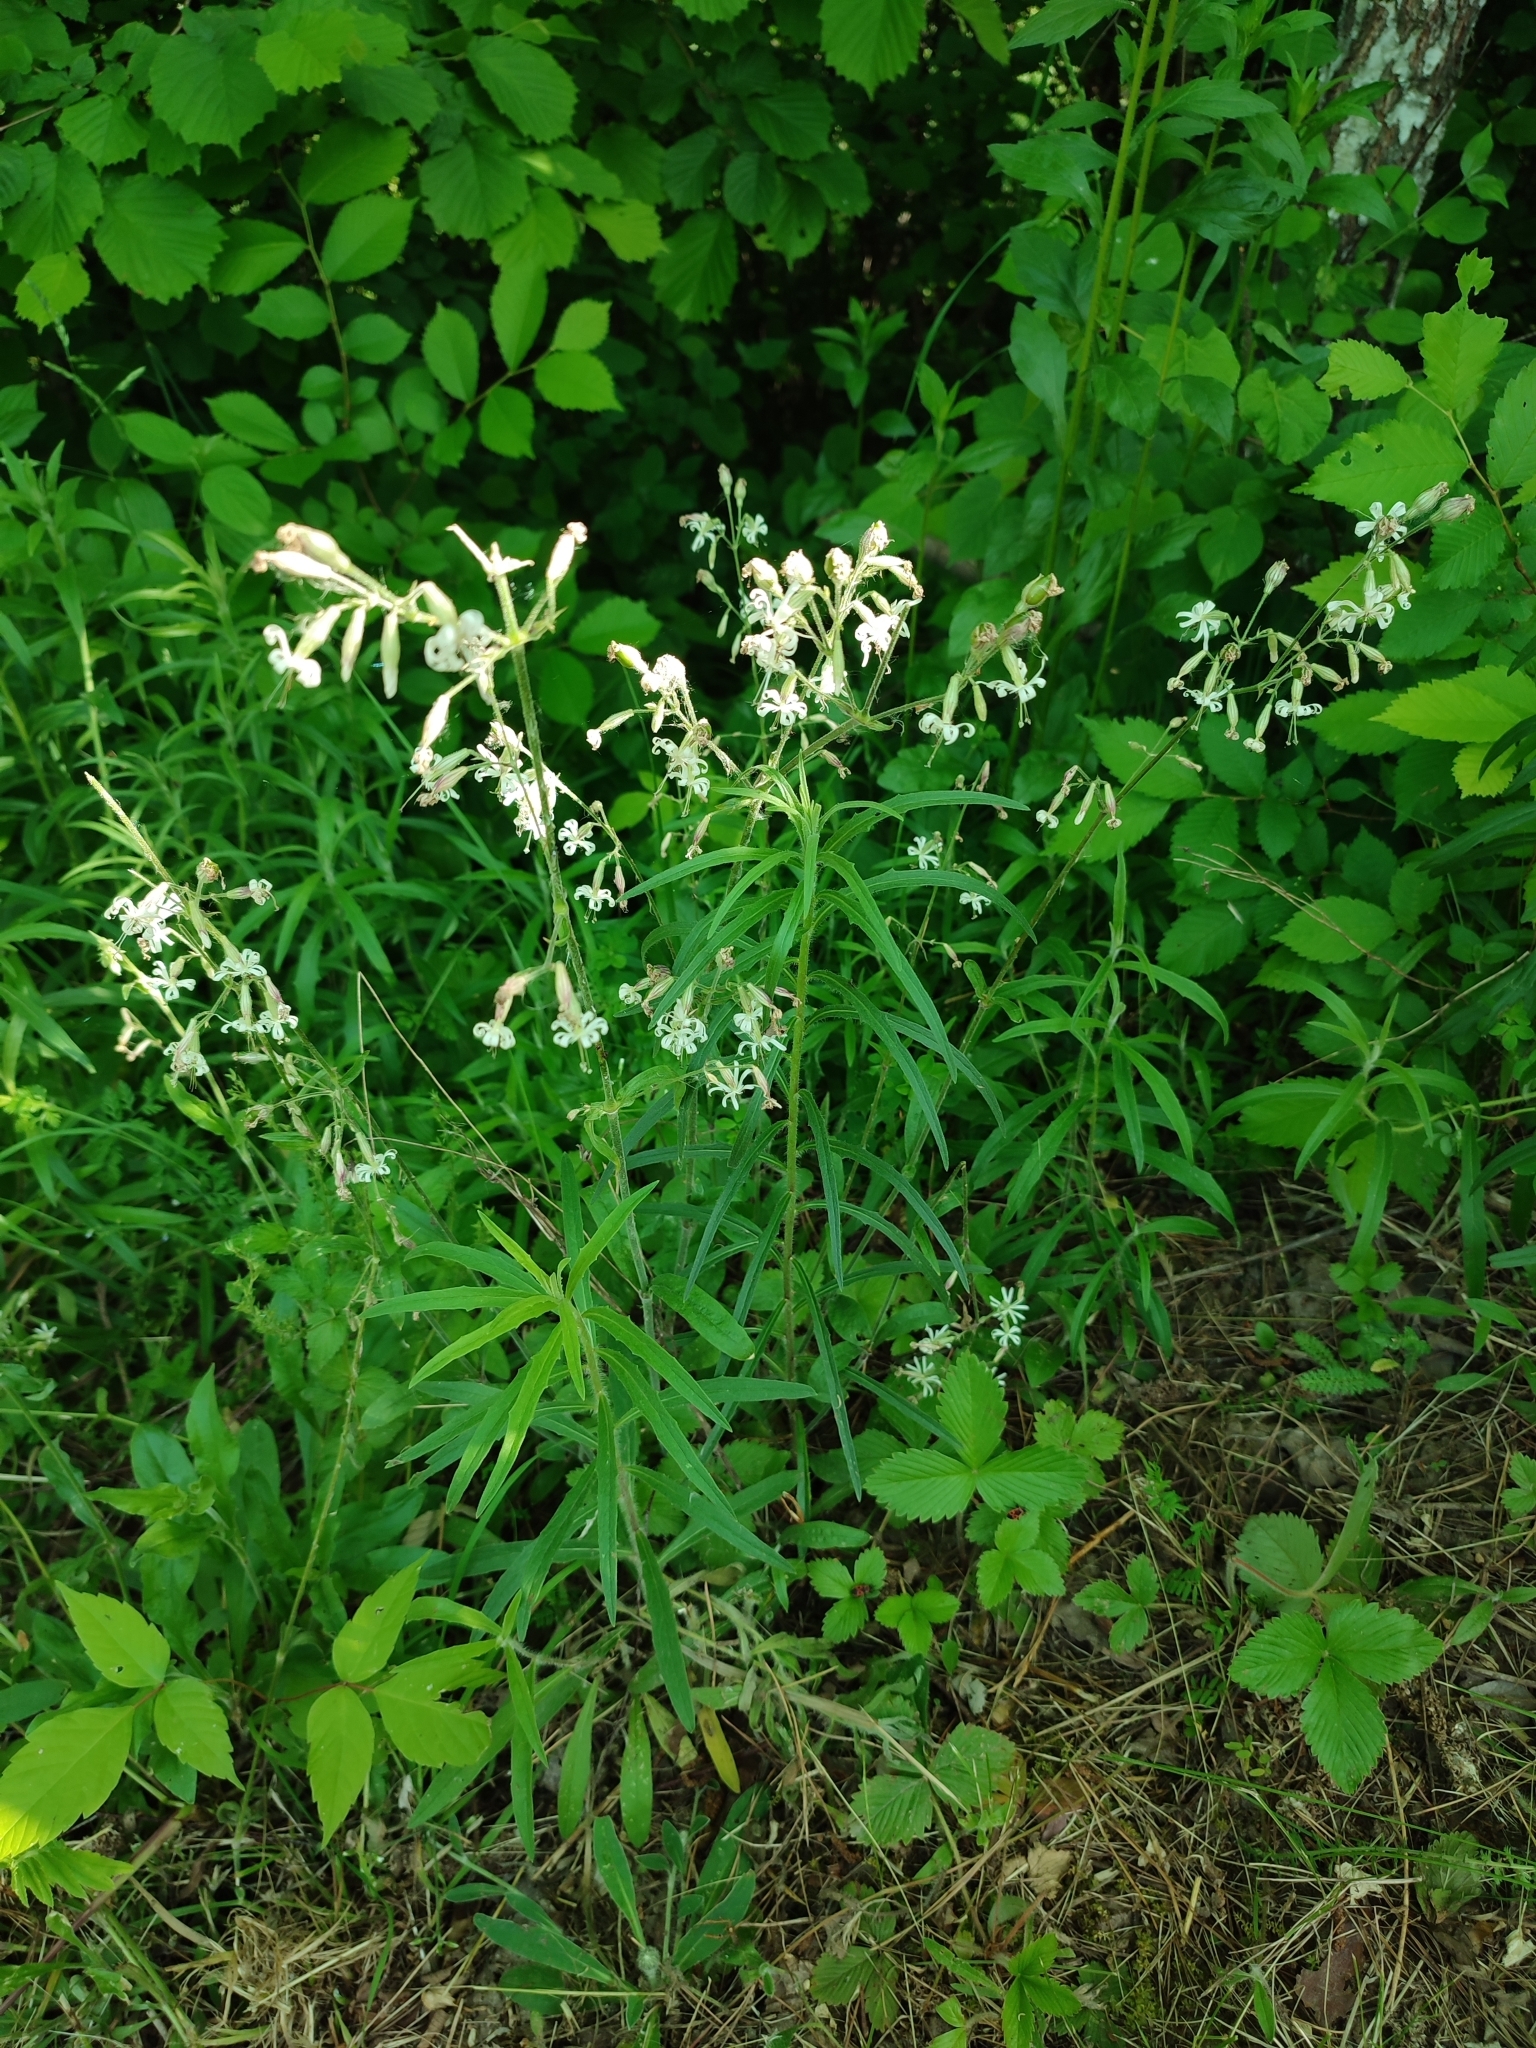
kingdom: Plantae
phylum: Tracheophyta
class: Magnoliopsida
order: Caryophyllales
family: Caryophyllaceae
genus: Silene
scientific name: Silene nutans
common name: Nottingham catchfly
